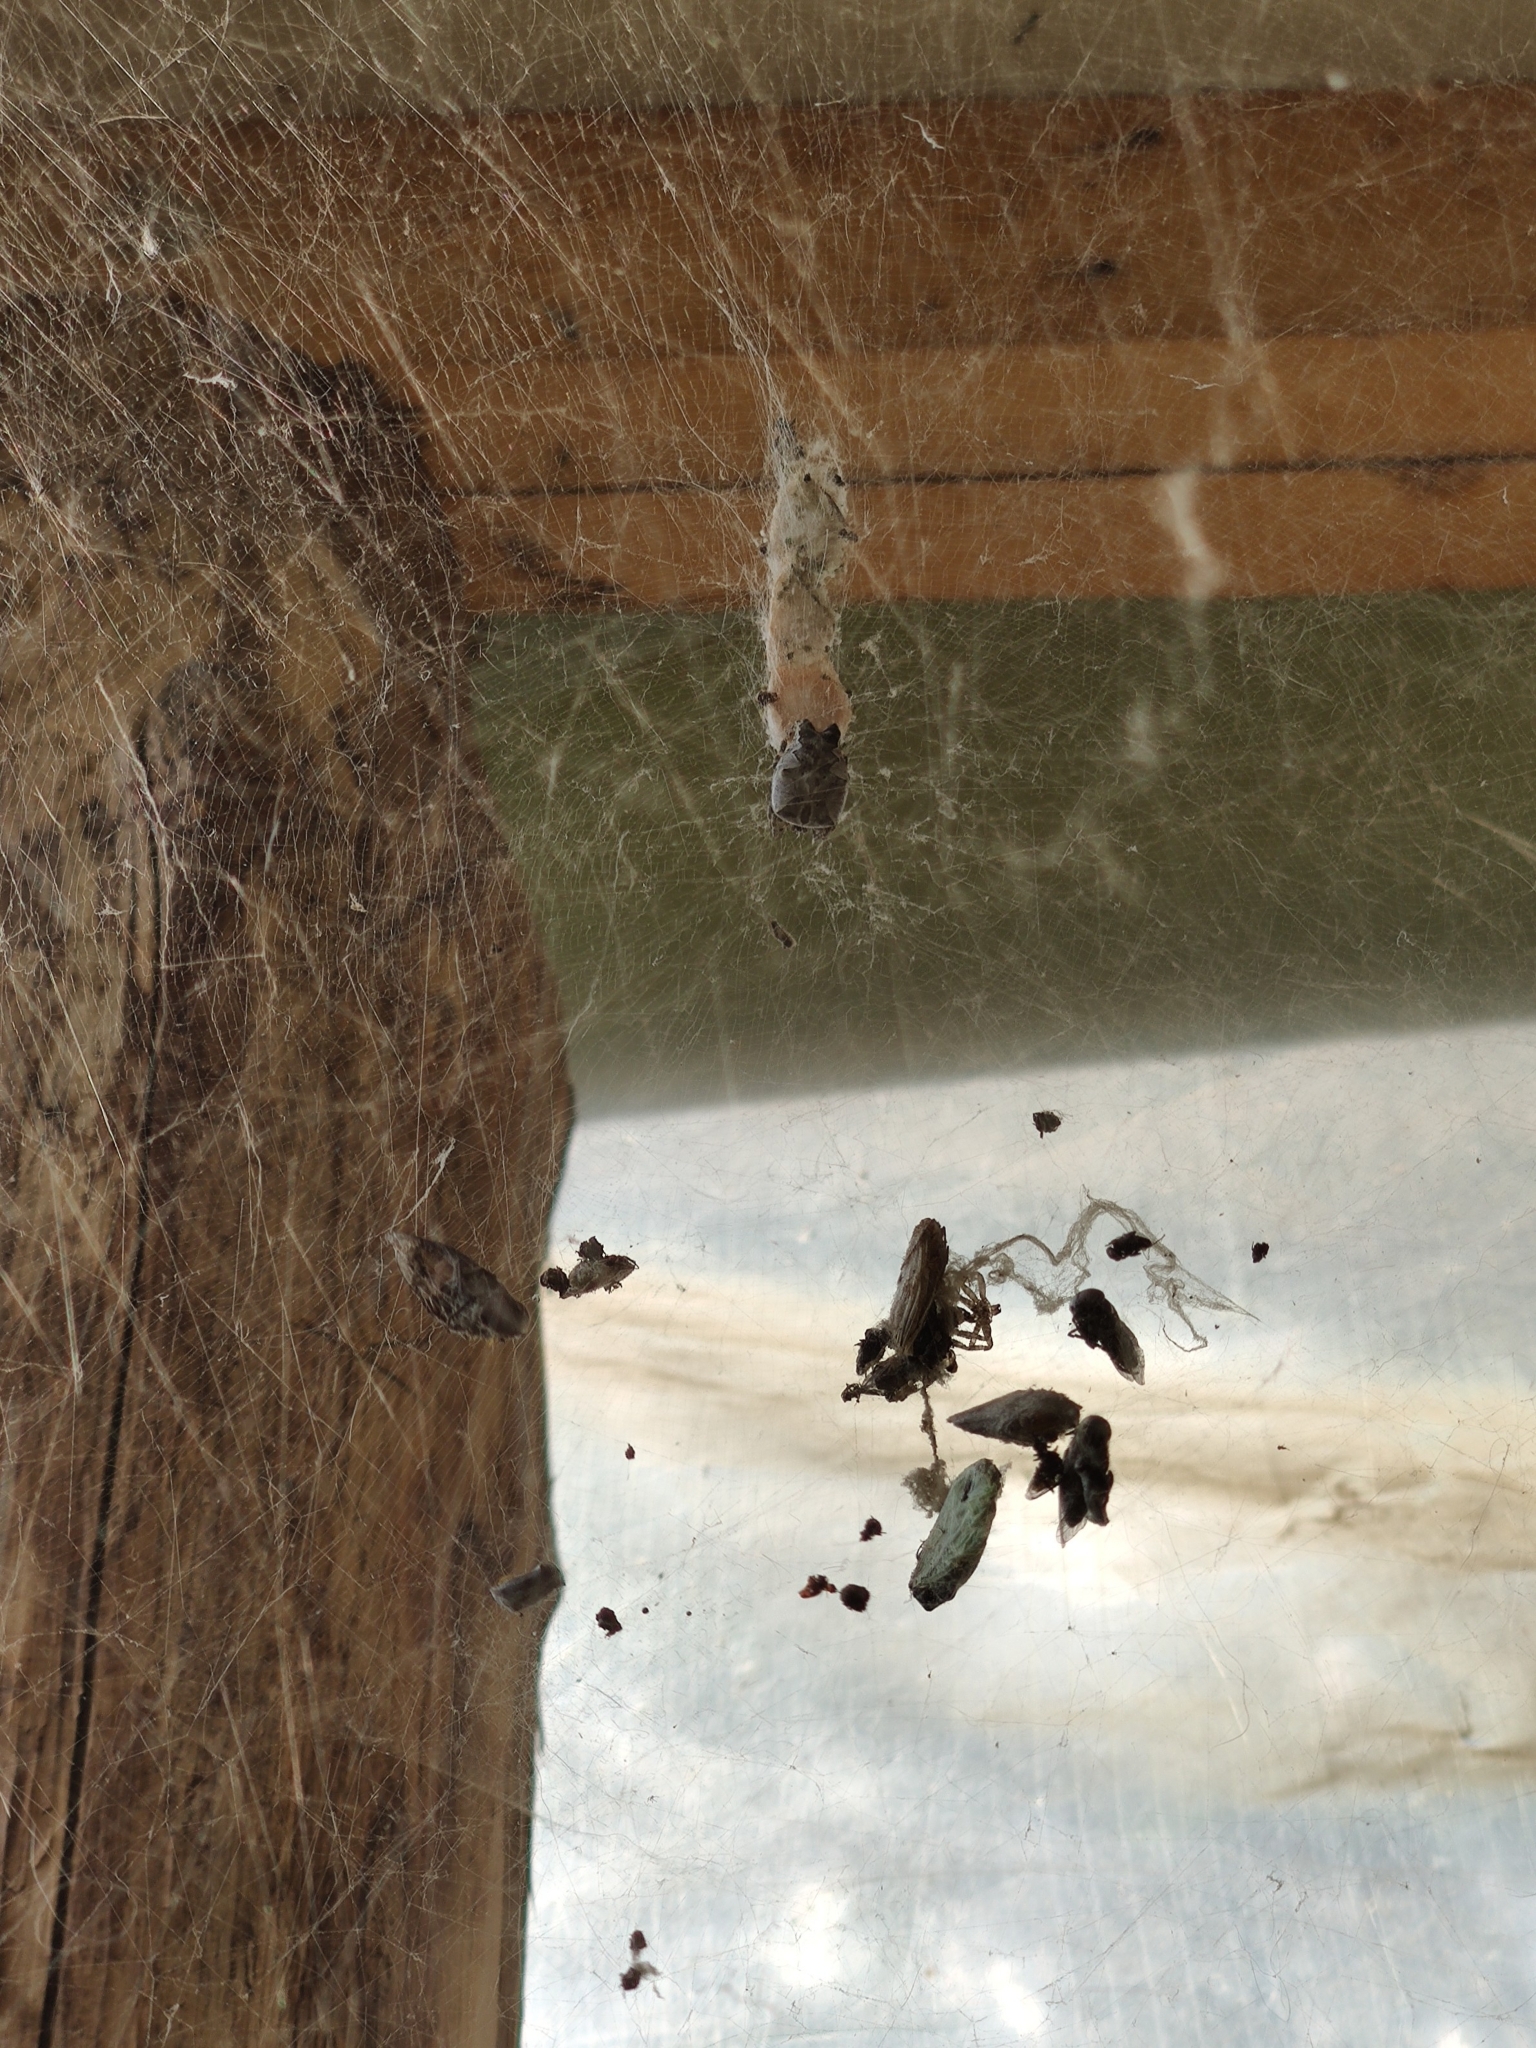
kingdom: Animalia
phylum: Arthropoda
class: Arachnida
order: Araneae
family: Araneidae
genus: Cyrtophora
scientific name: Cyrtophora citricola
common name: Orb weavers
